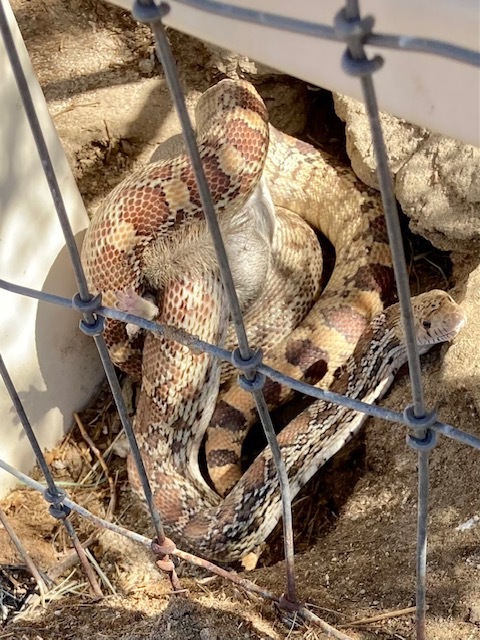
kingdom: Animalia
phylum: Chordata
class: Squamata
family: Colubridae
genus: Pituophis
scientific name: Pituophis catenifer
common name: Gopher snake
